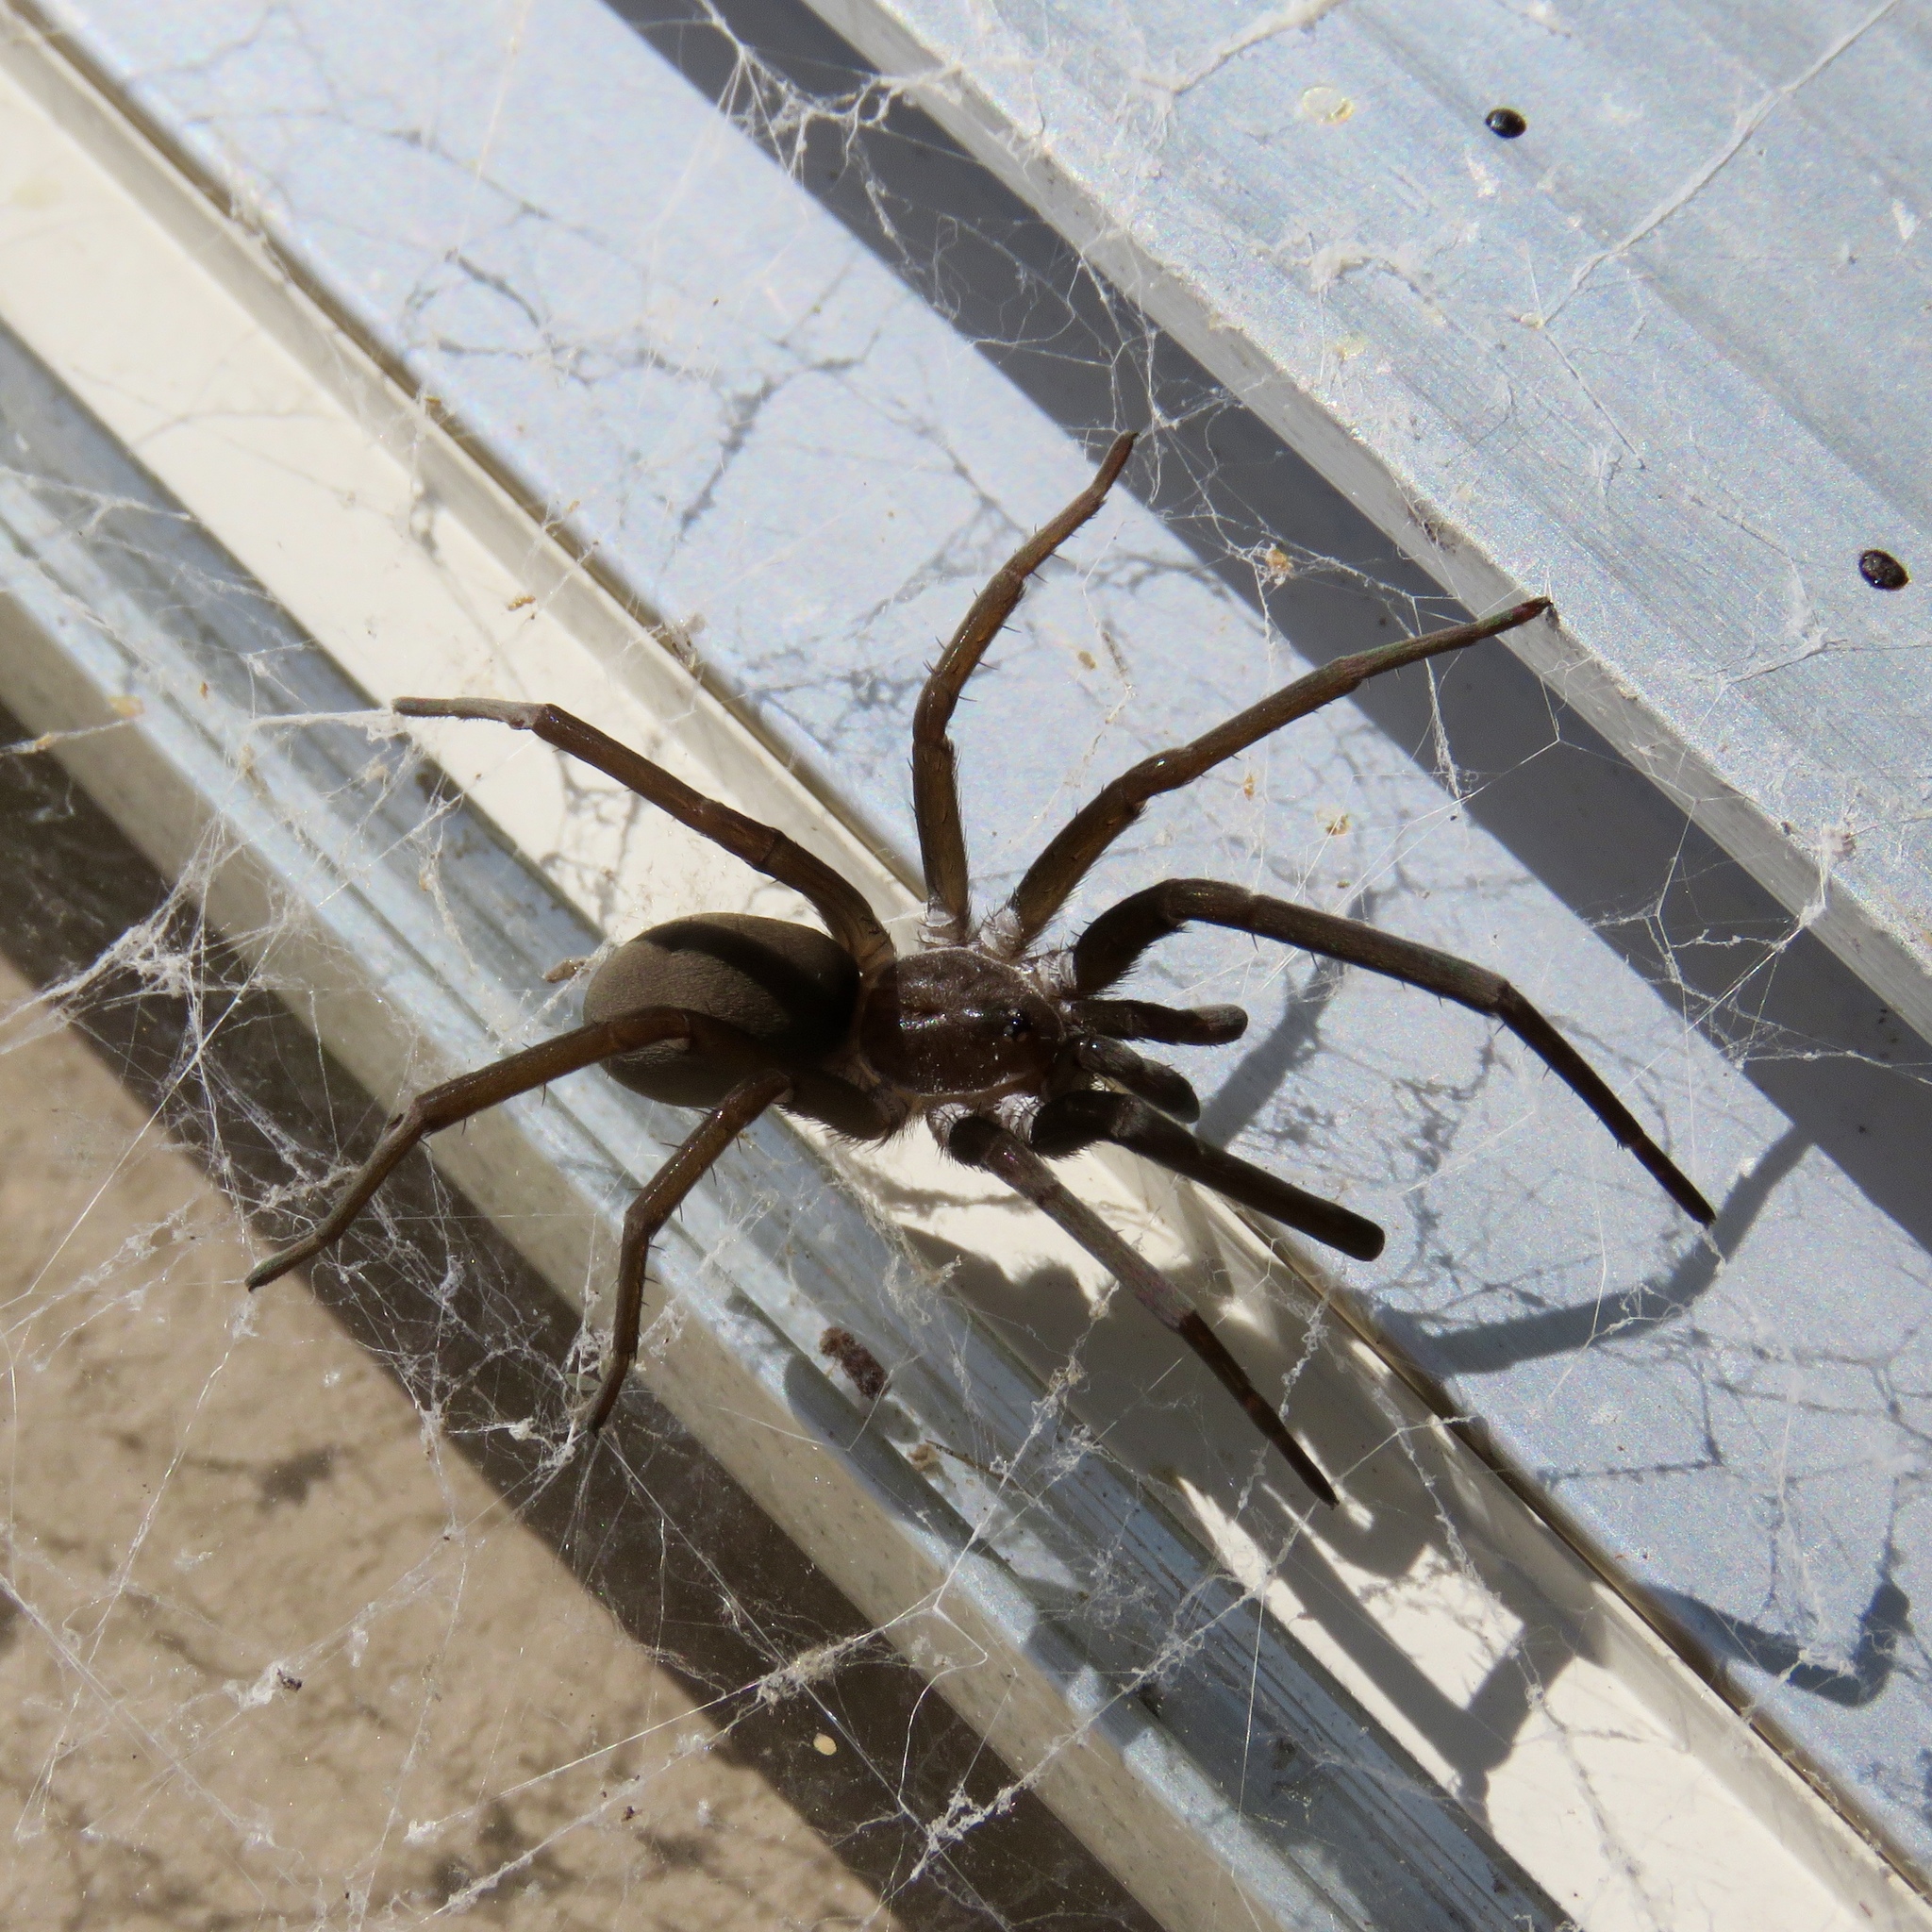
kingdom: Animalia
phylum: Arthropoda
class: Arachnida
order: Araneae
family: Filistatidae
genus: Kukulcania
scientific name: Kukulcania hibernalis
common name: Crevice weaver
